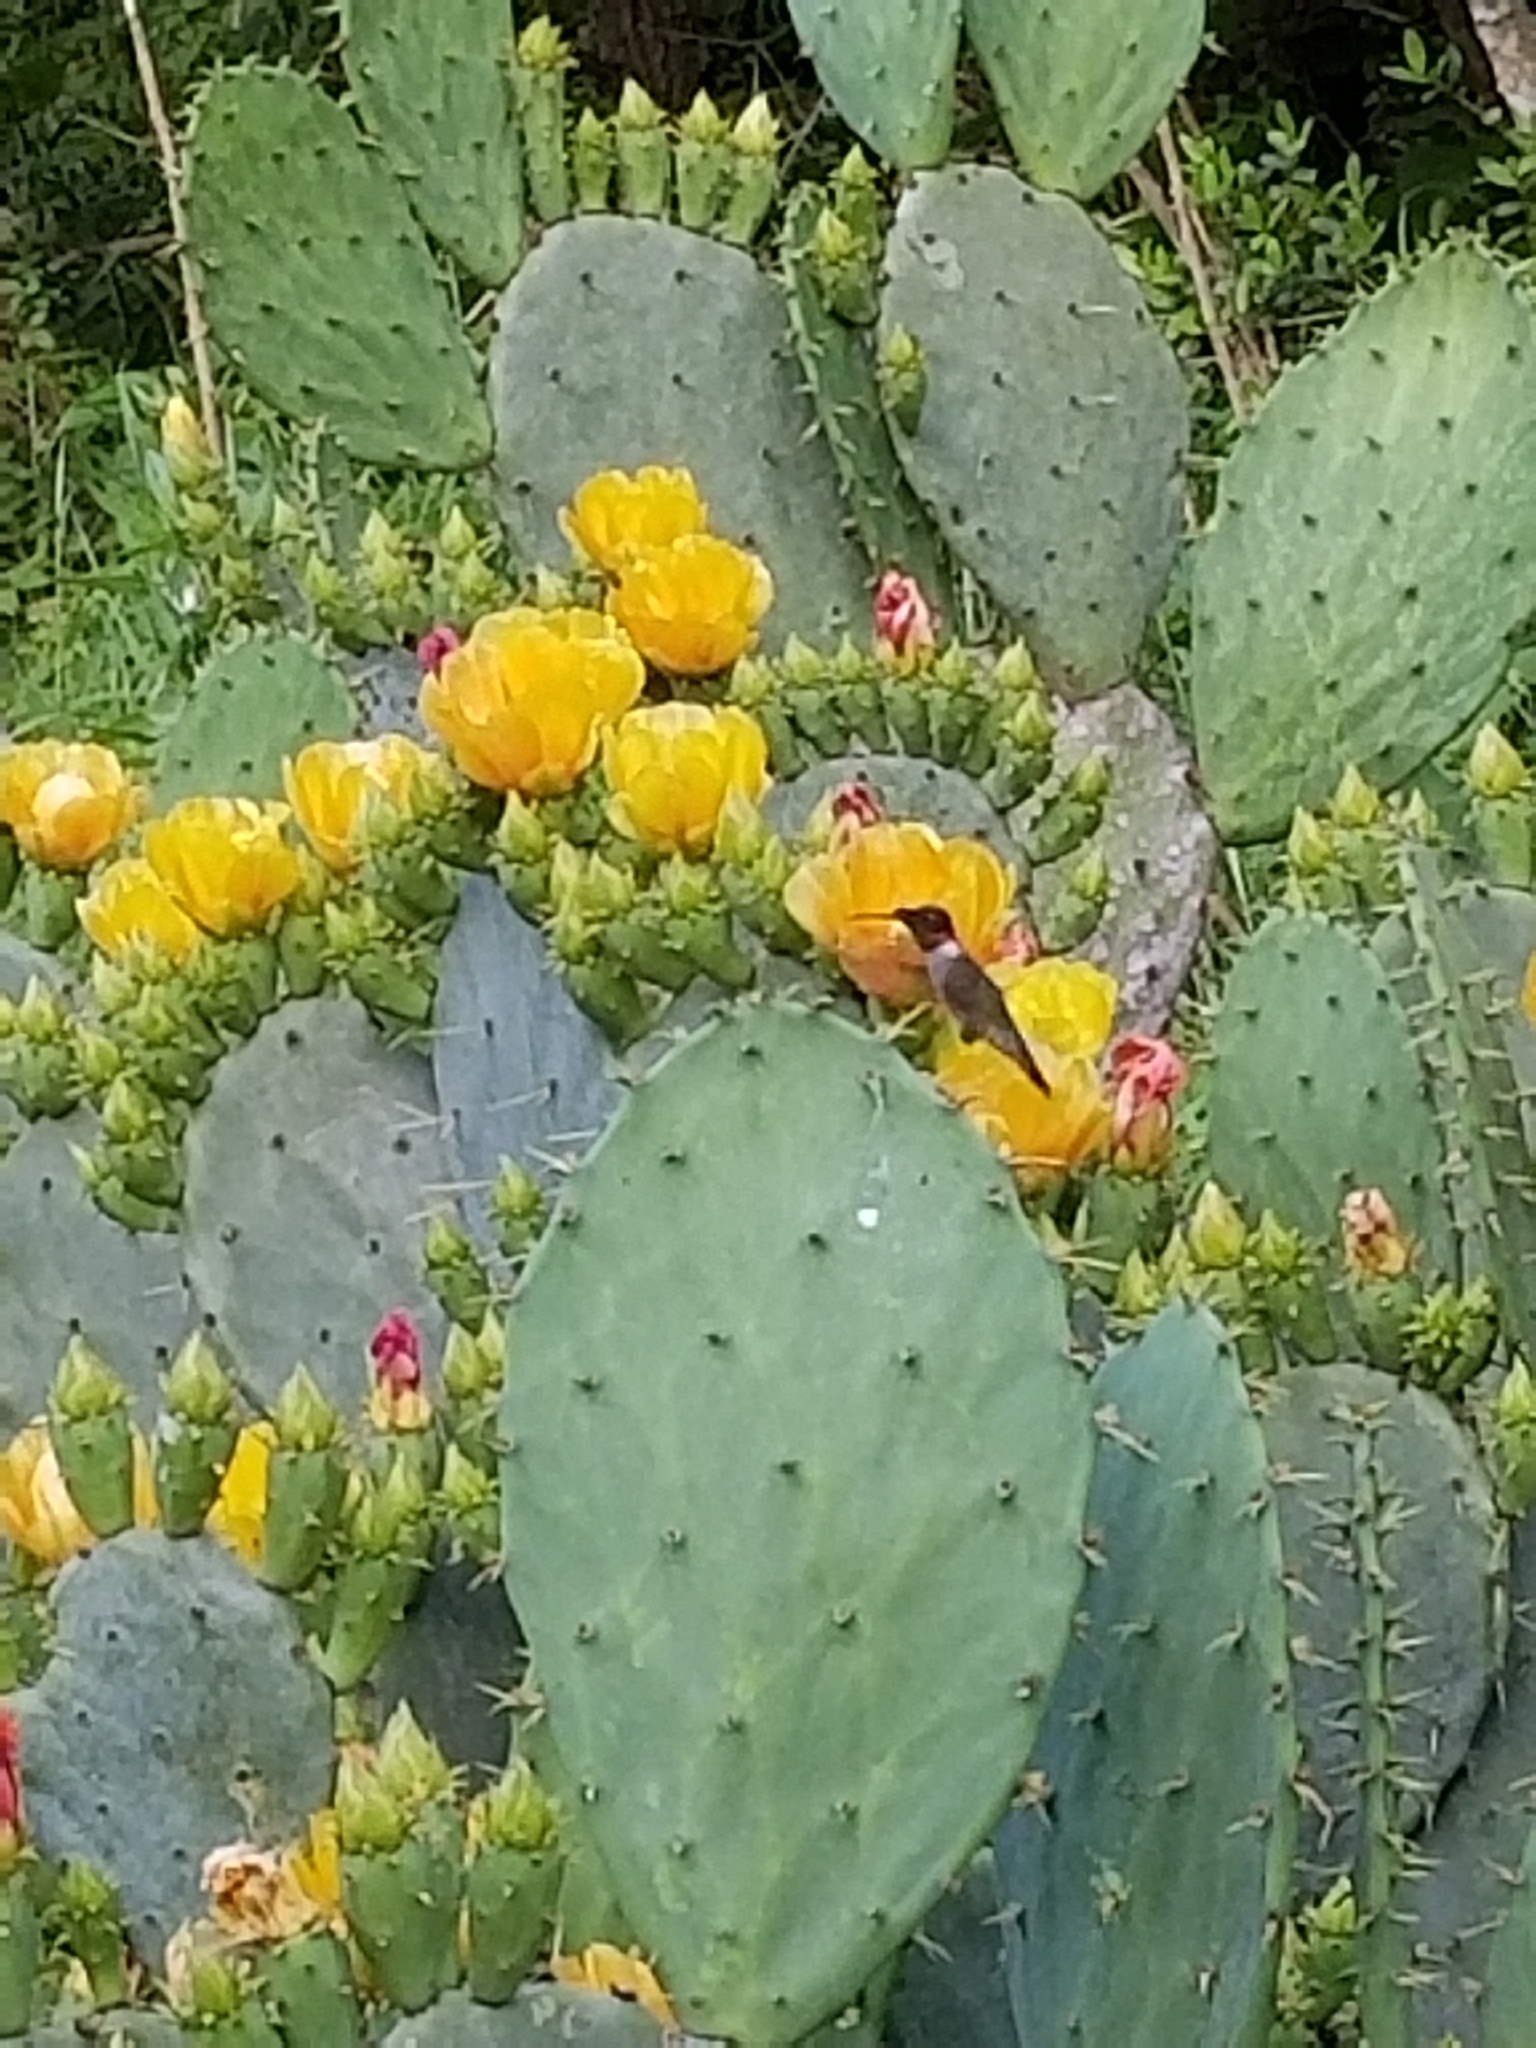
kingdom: Animalia
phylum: Chordata
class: Aves
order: Apodiformes
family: Trochilidae
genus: Archilochus
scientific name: Archilochus colubris
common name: Ruby-throated hummingbird
